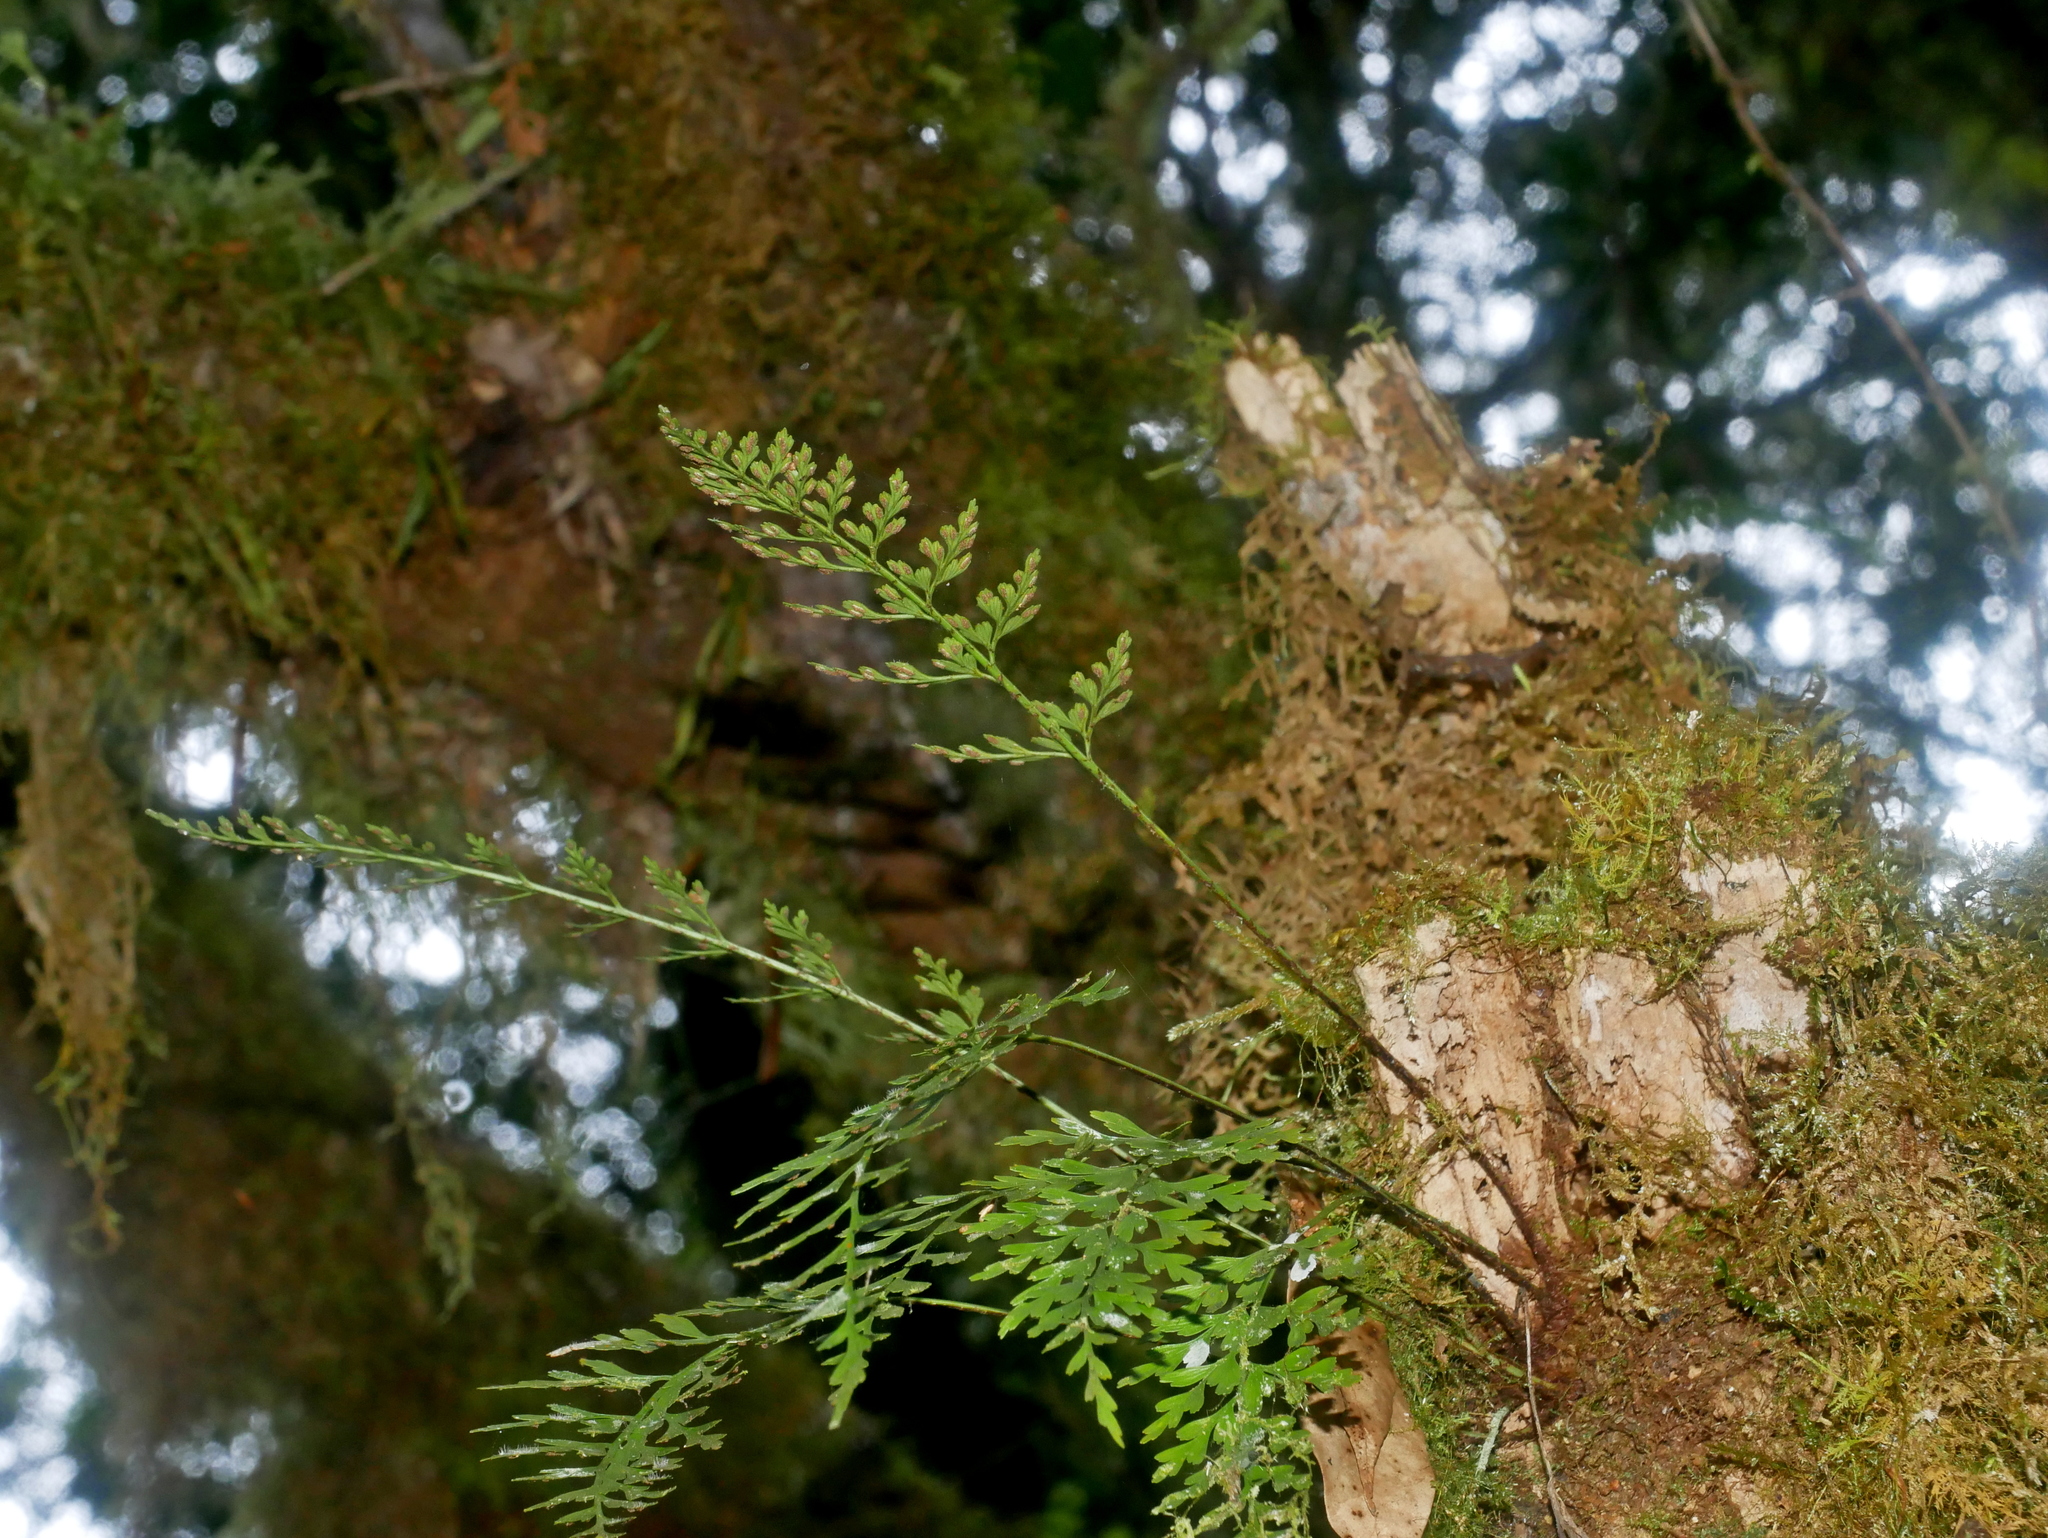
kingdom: Plantae
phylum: Tracheophyta
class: Polypodiopsida
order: Polypodiales
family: Aspleniaceae
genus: Asplenium
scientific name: Asplenium wilfordii
